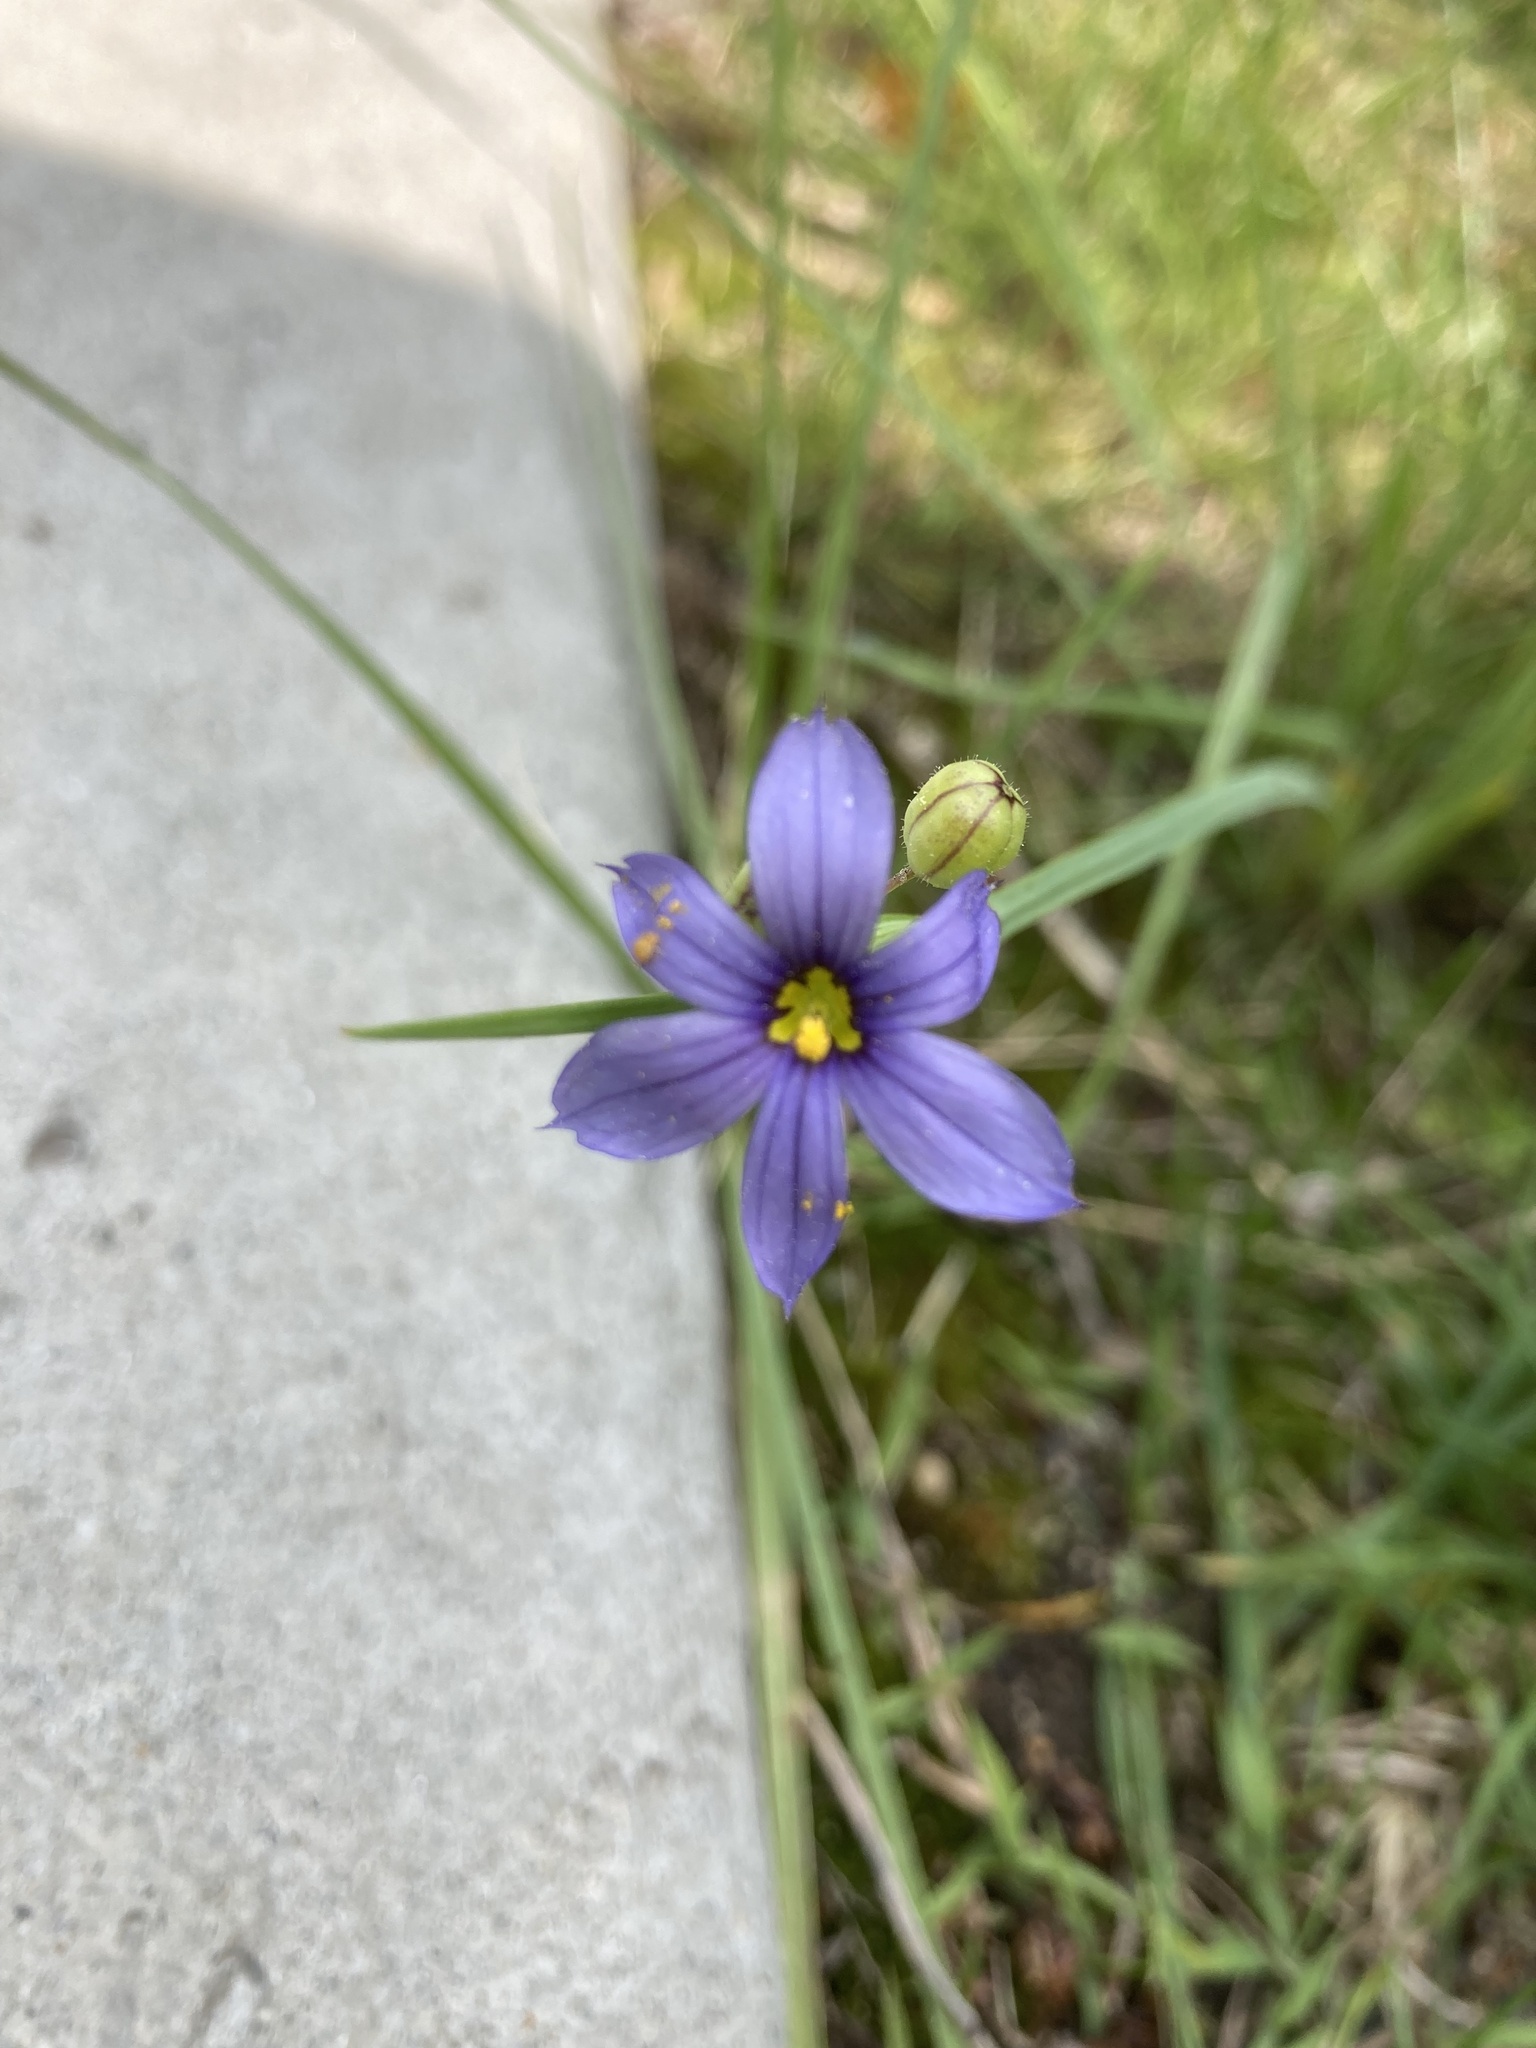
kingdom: Plantae
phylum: Tracheophyta
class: Liliopsida
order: Asparagales
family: Iridaceae
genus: Sisyrinchium
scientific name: Sisyrinchium montanum
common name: American blue-eyed-grass
